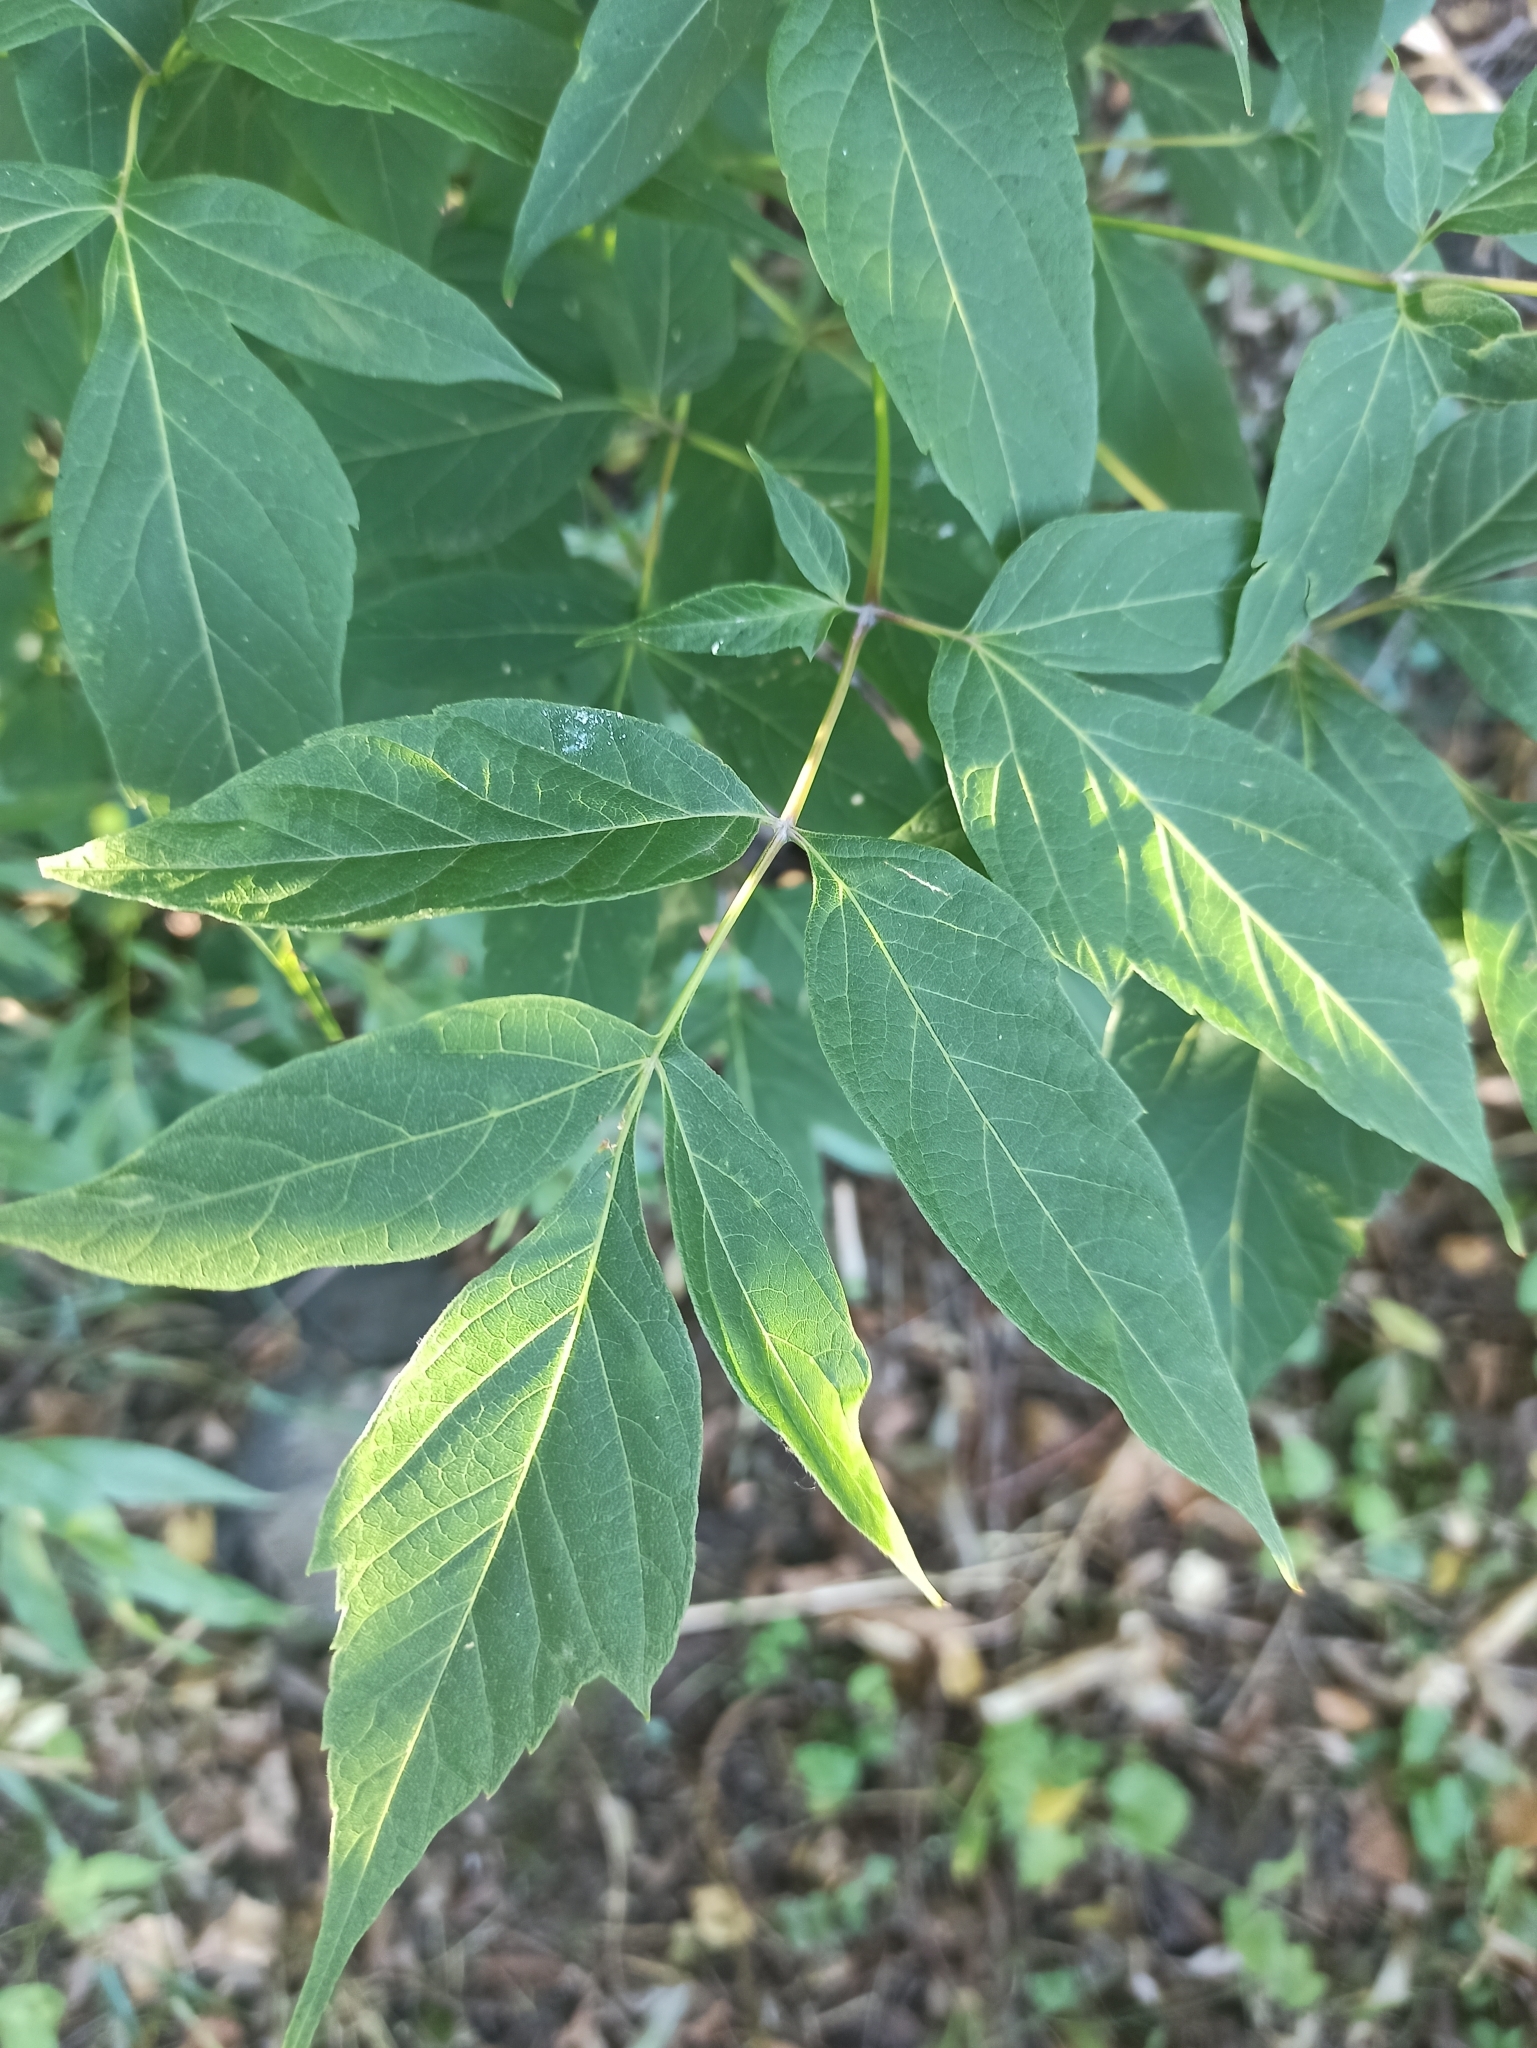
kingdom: Plantae
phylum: Tracheophyta
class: Magnoliopsida
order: Sapindales
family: Sapindaceae
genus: Acer
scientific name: Acer negundo
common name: Ashleaf maple
